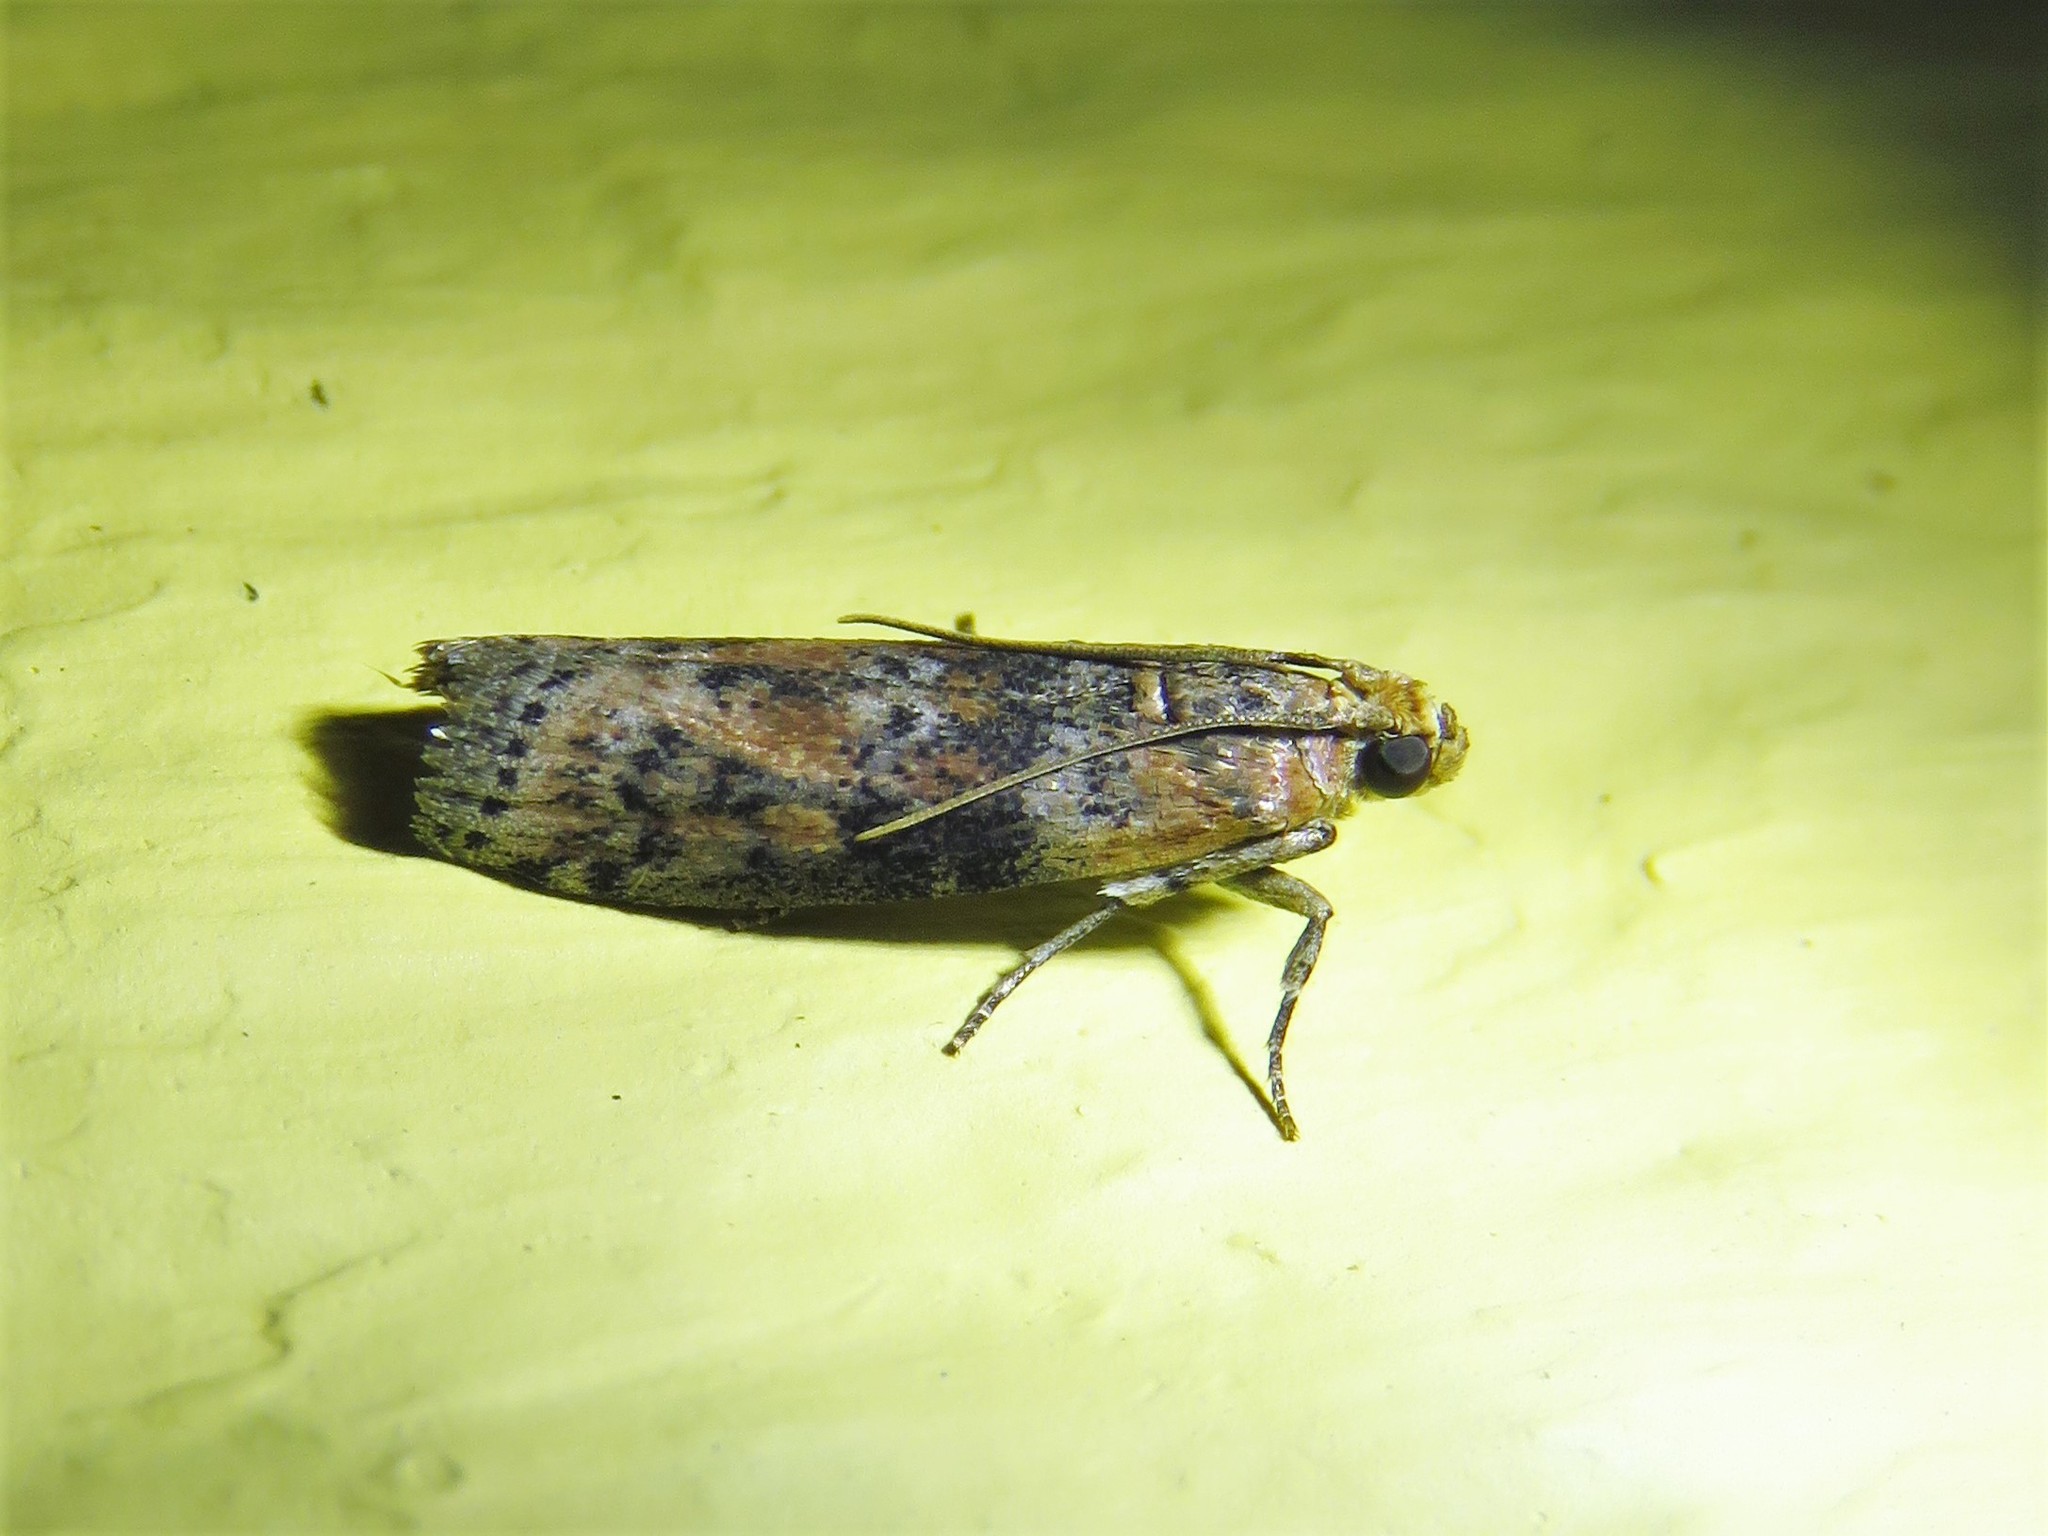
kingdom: Animalia
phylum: Arthropoda
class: Insecta
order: Lepidoptera
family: Pyralidae
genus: Sciota
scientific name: Sciota celtidella
